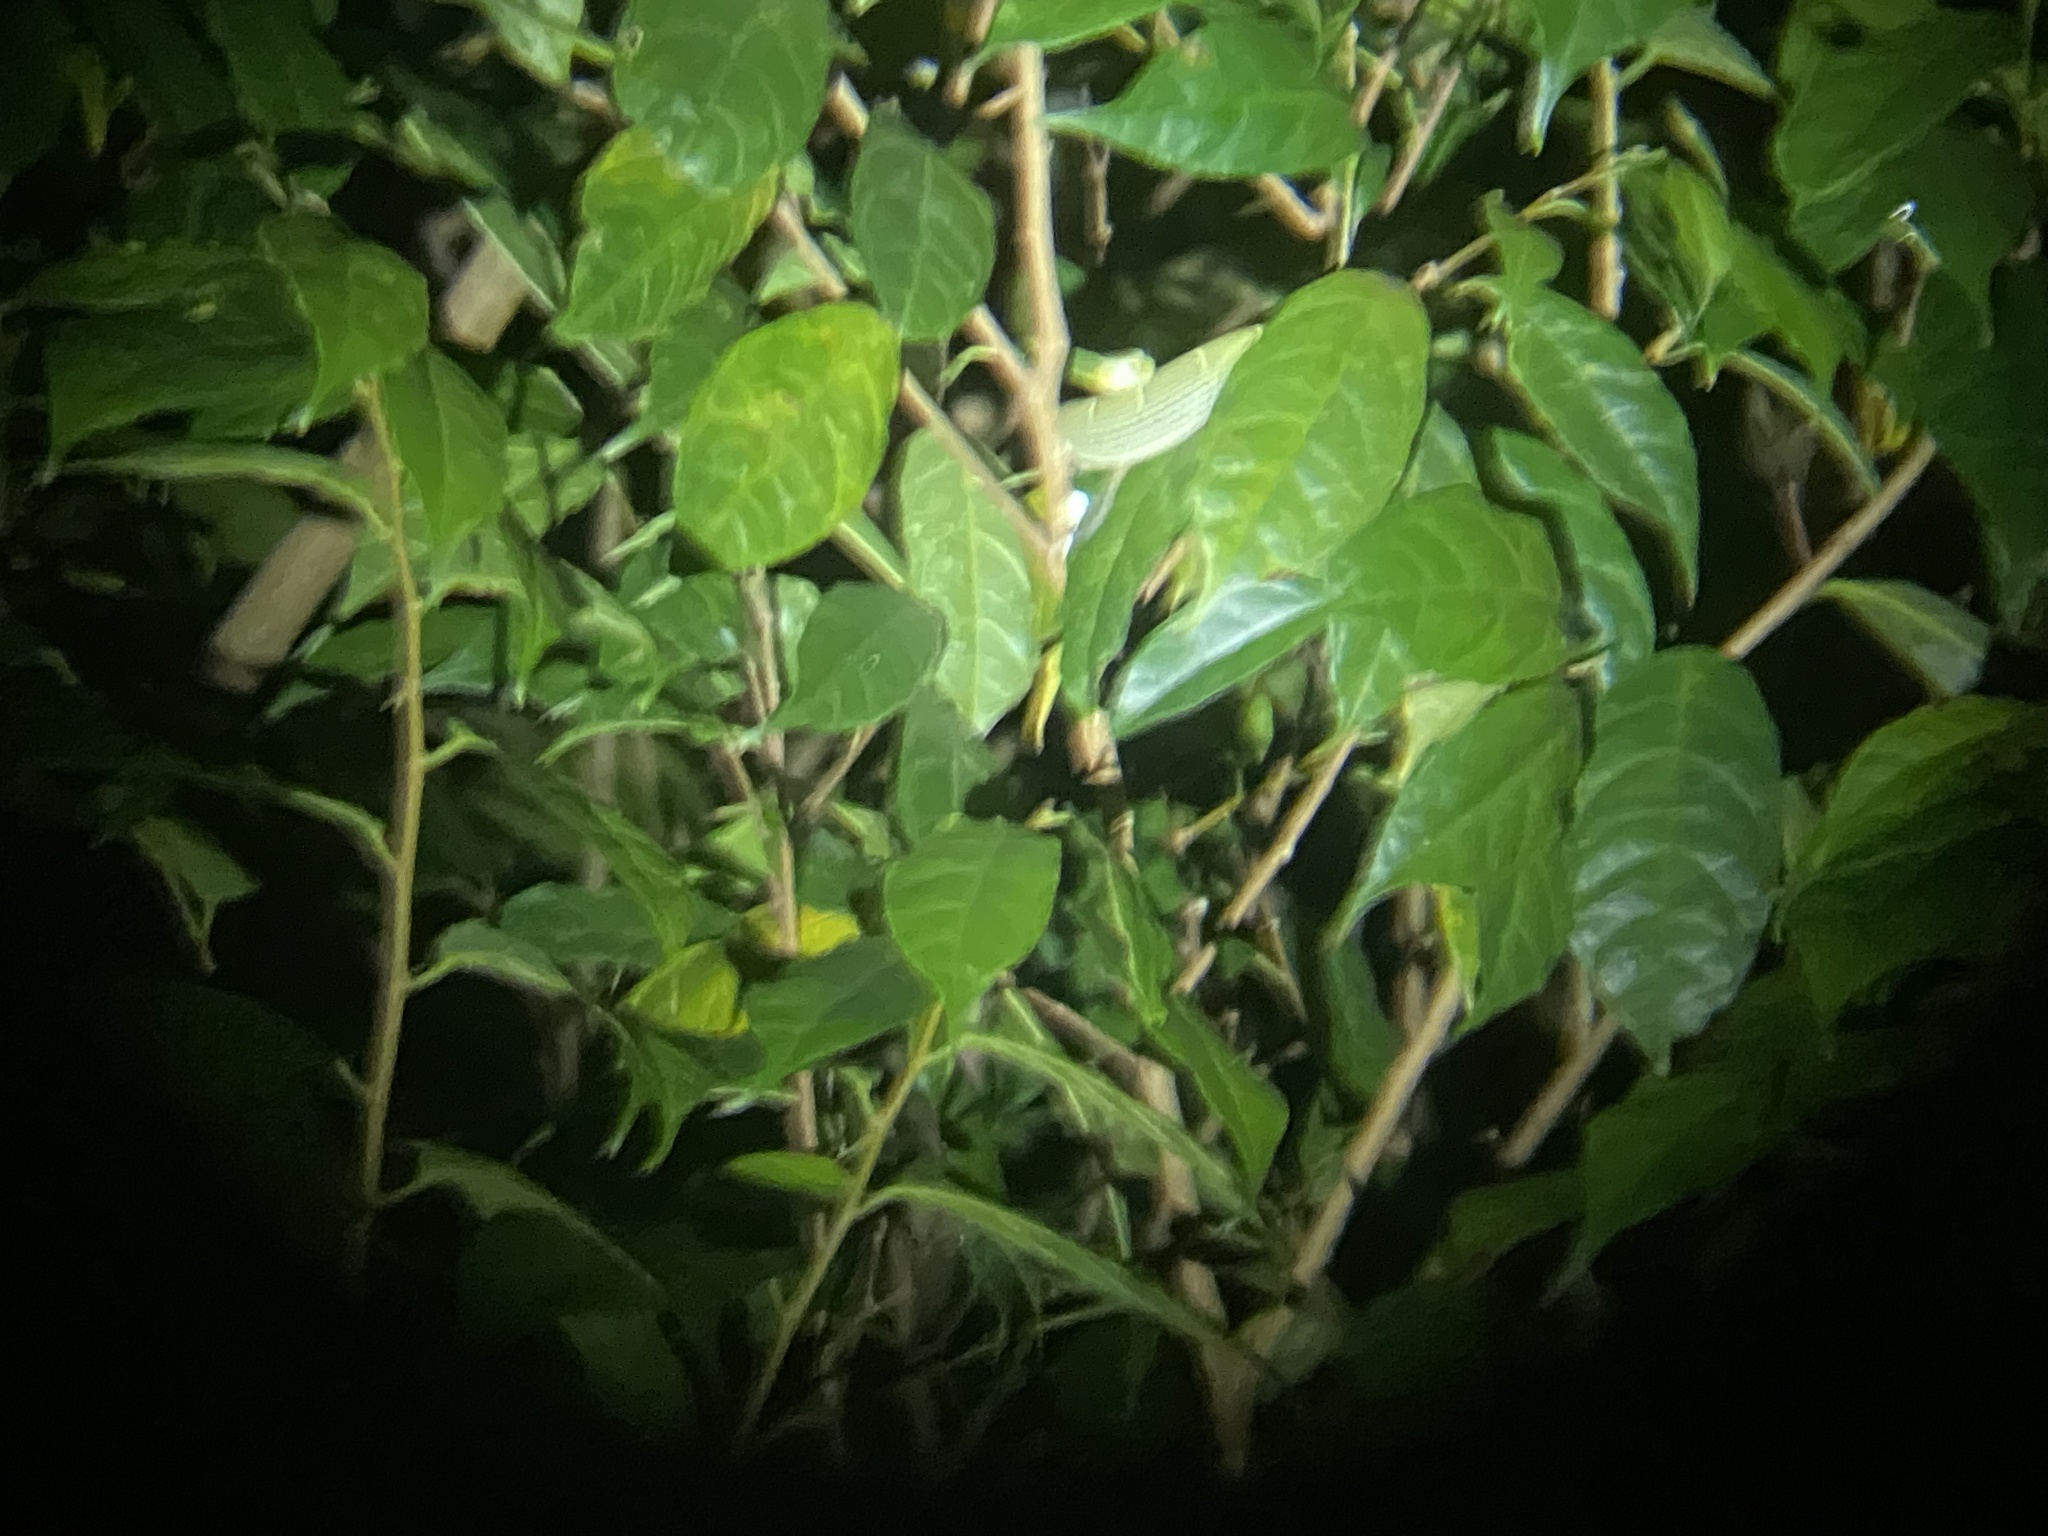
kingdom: Animalia
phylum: Chordata
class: Squamata
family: Viperidae
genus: Bothriechis
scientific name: Bothriechis lateralis
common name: Coffee palm viper
